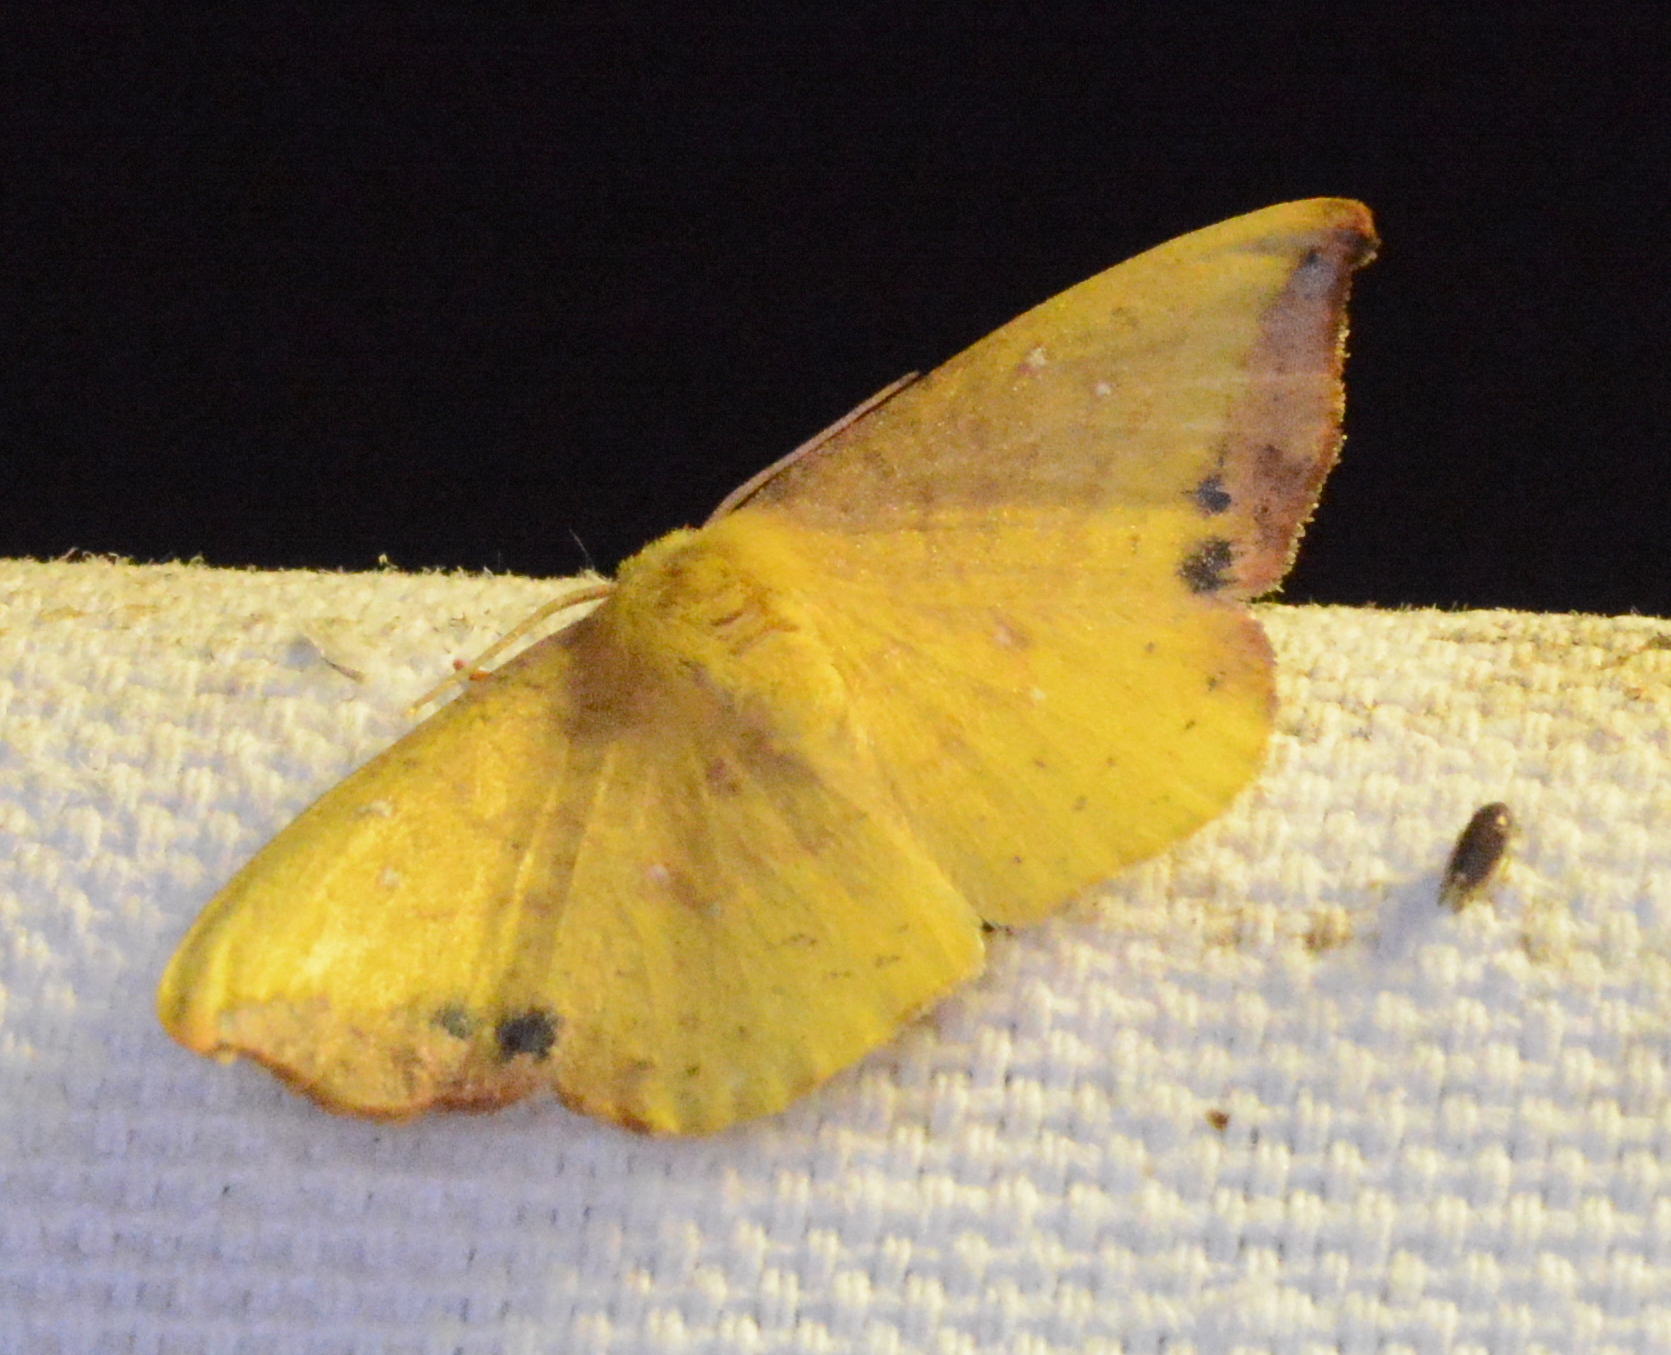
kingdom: Animalia
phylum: Arthropoda
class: Insecta
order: Lepidoptera
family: Drepanidae
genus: Oreta
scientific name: Oreta rosea
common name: Rose hooktip
